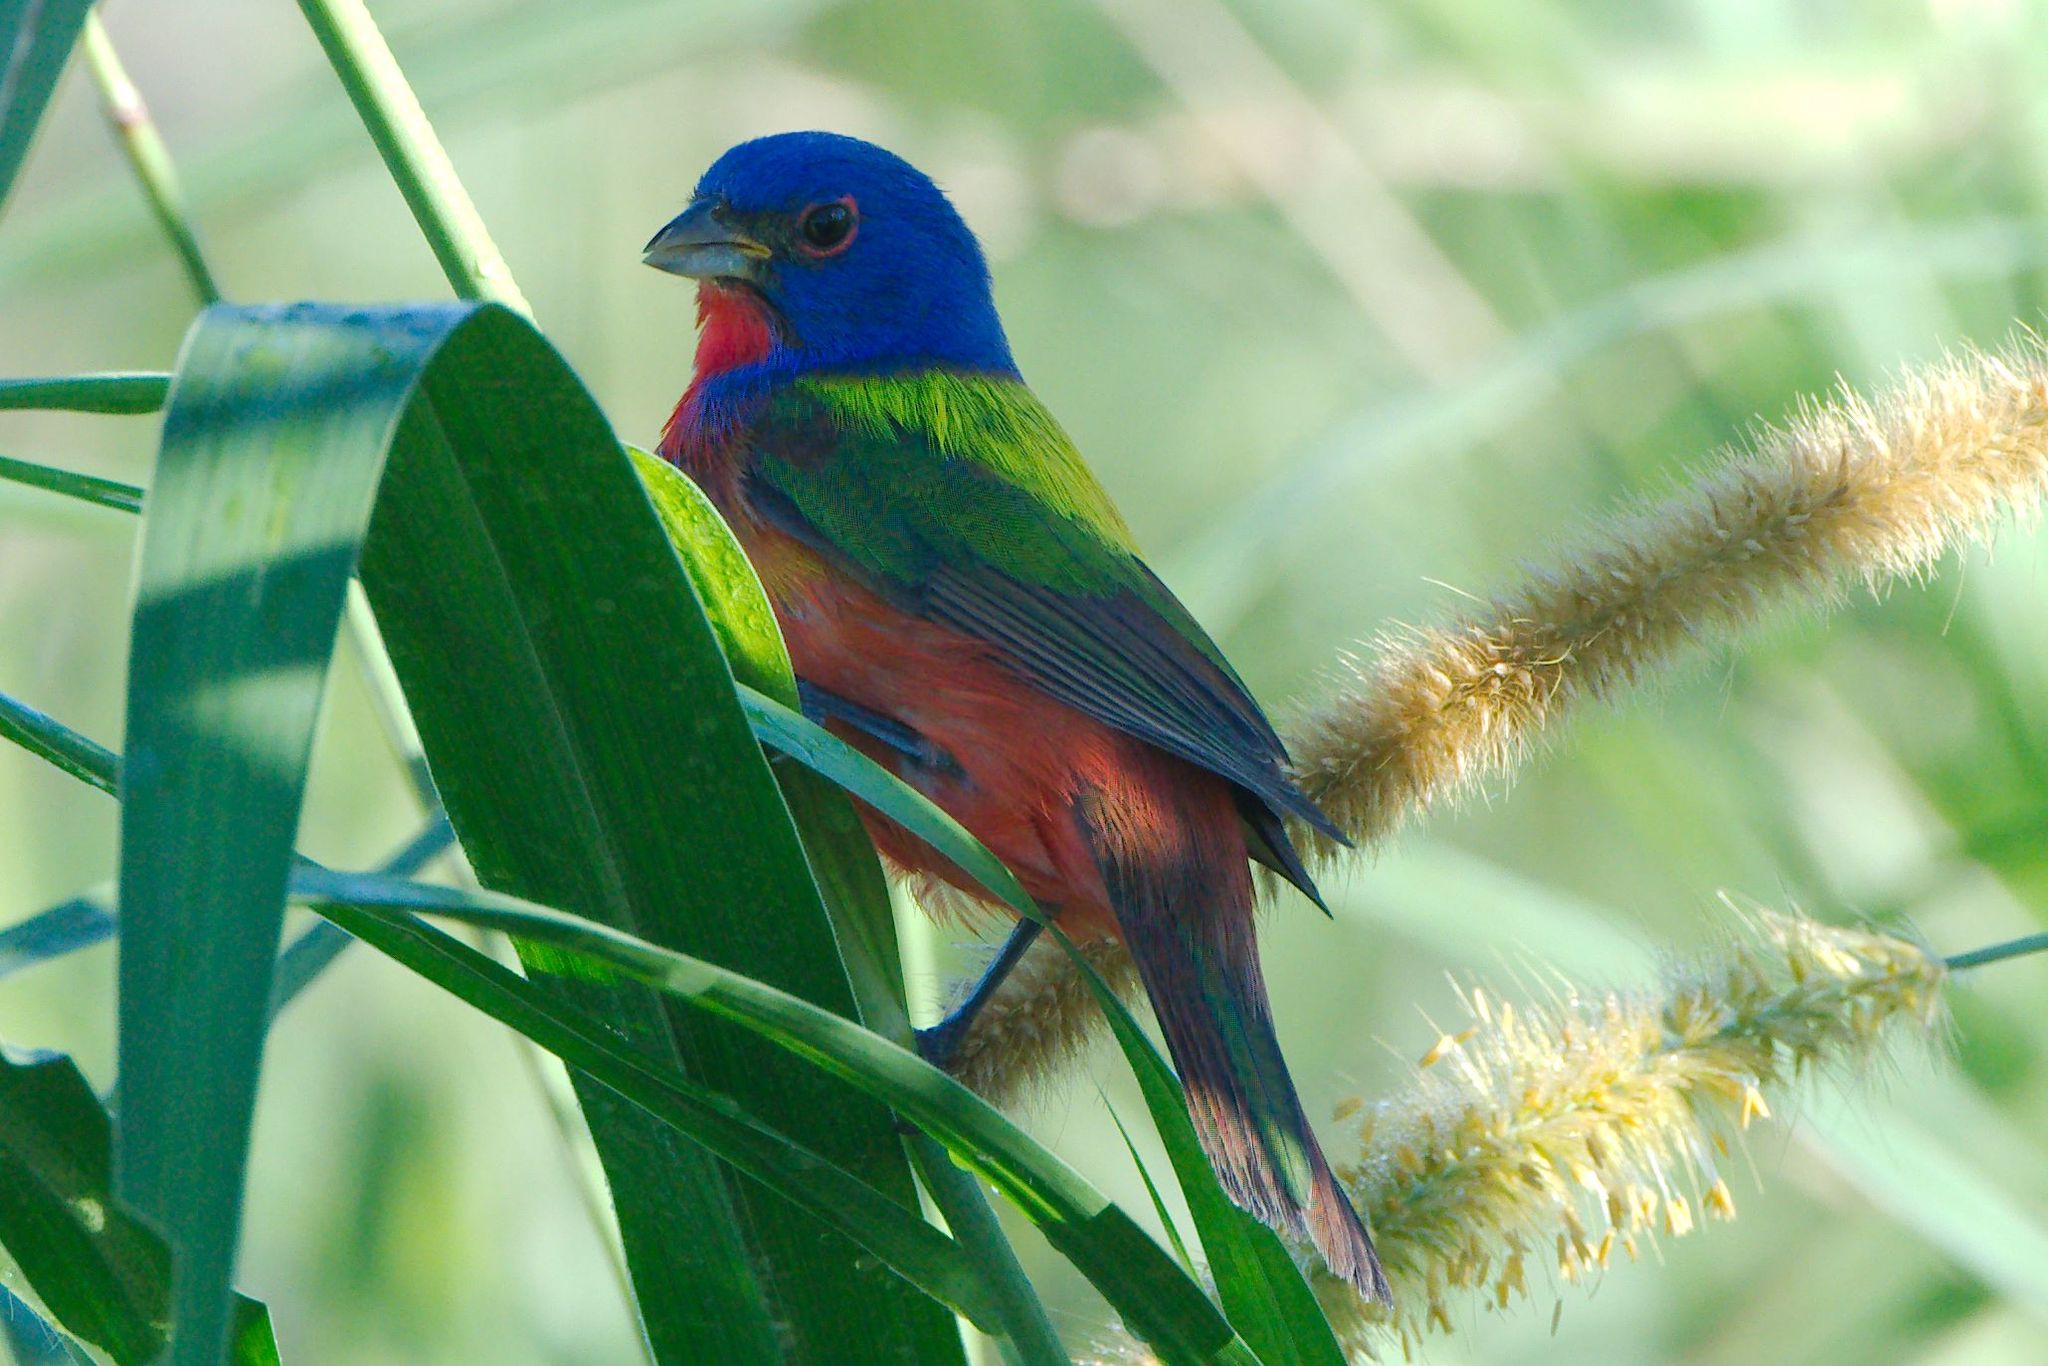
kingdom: Animalia
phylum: Chordata
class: Aves
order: Passeriformes
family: Cardinalidae
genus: Passerina
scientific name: Passerina ciris
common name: Painted bunting
